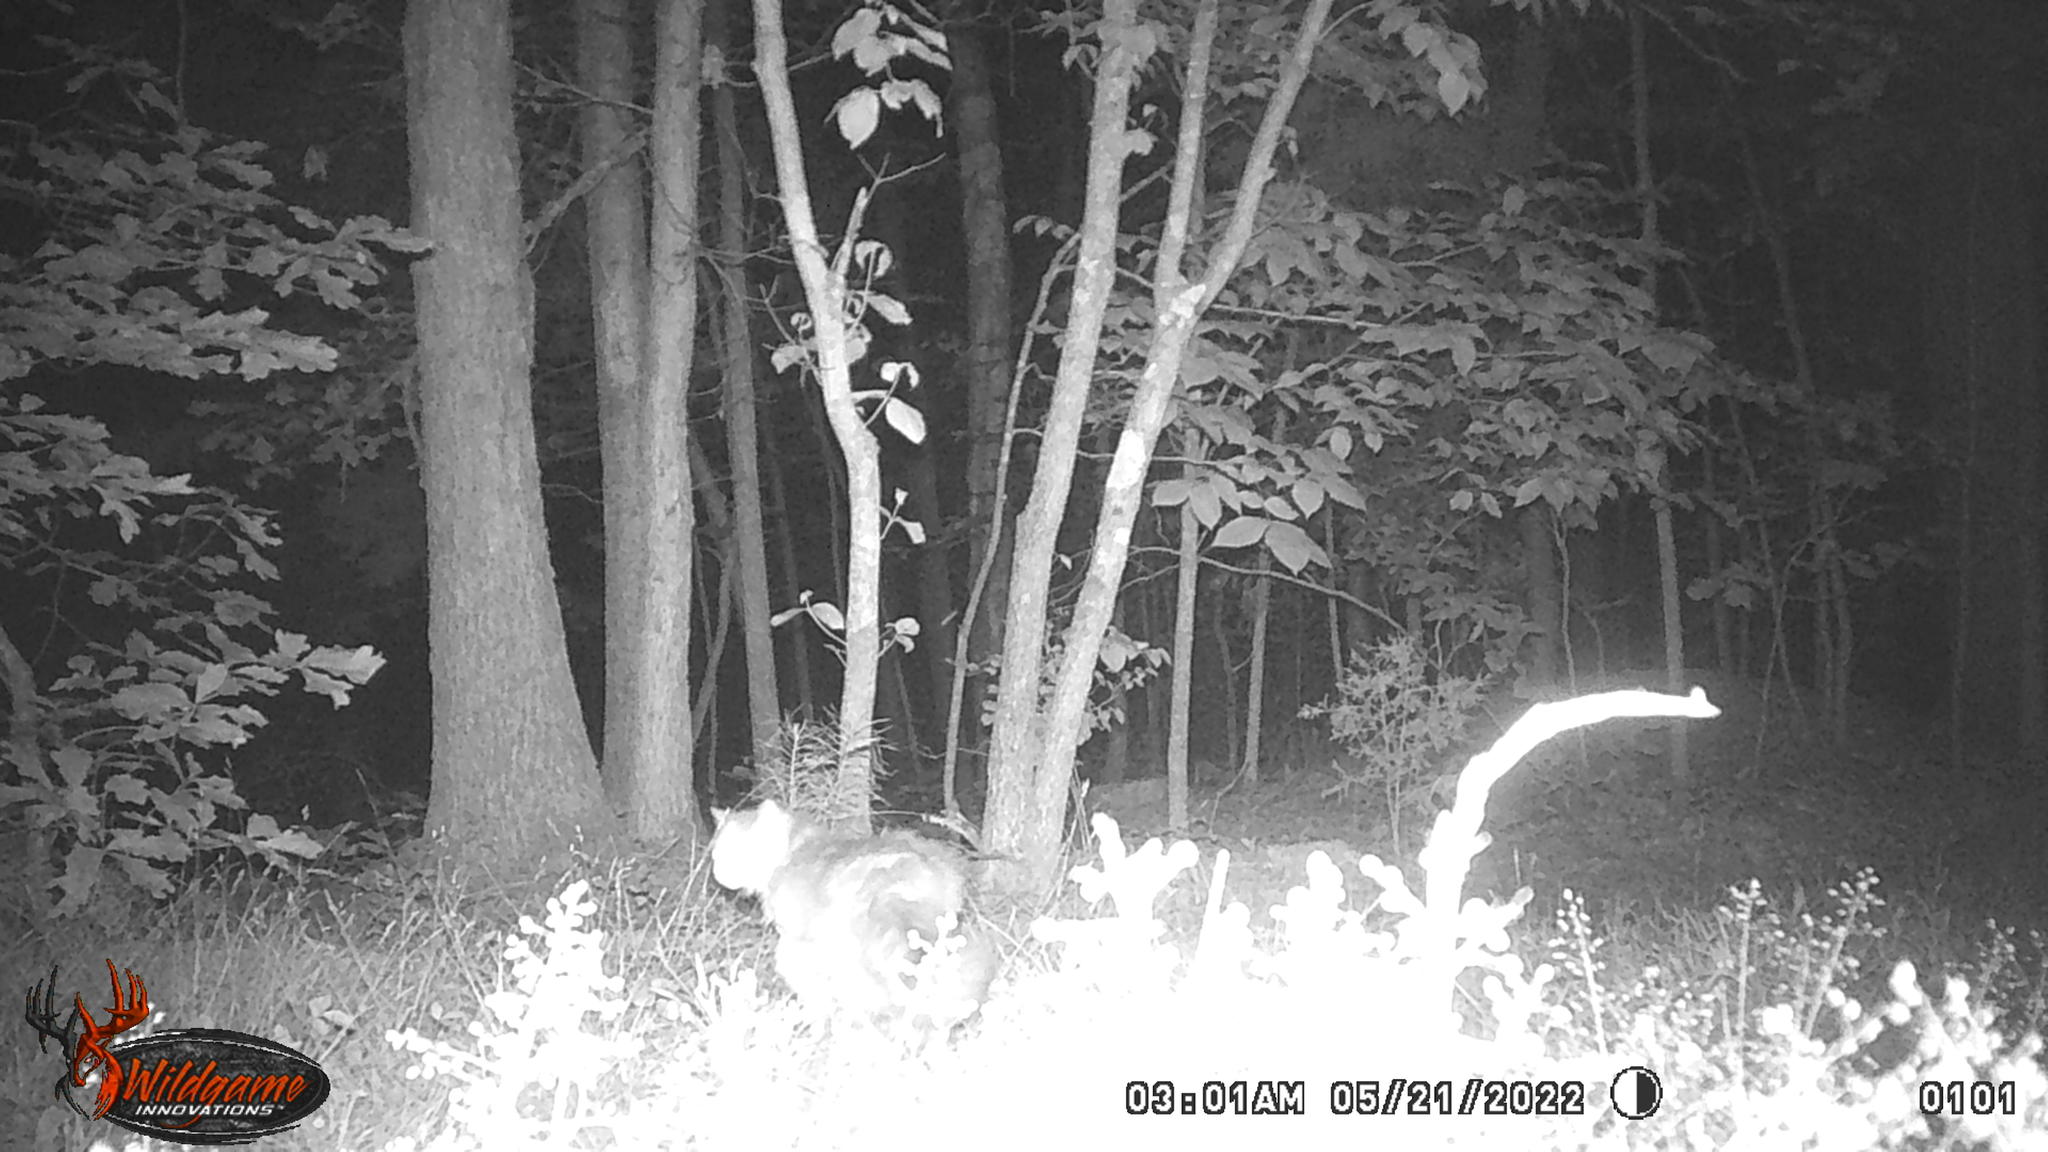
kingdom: Animalia
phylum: Chordata
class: Mammalia
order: Carnivora
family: Felidae
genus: Felis
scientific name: Felis catus
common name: Domestic cat
